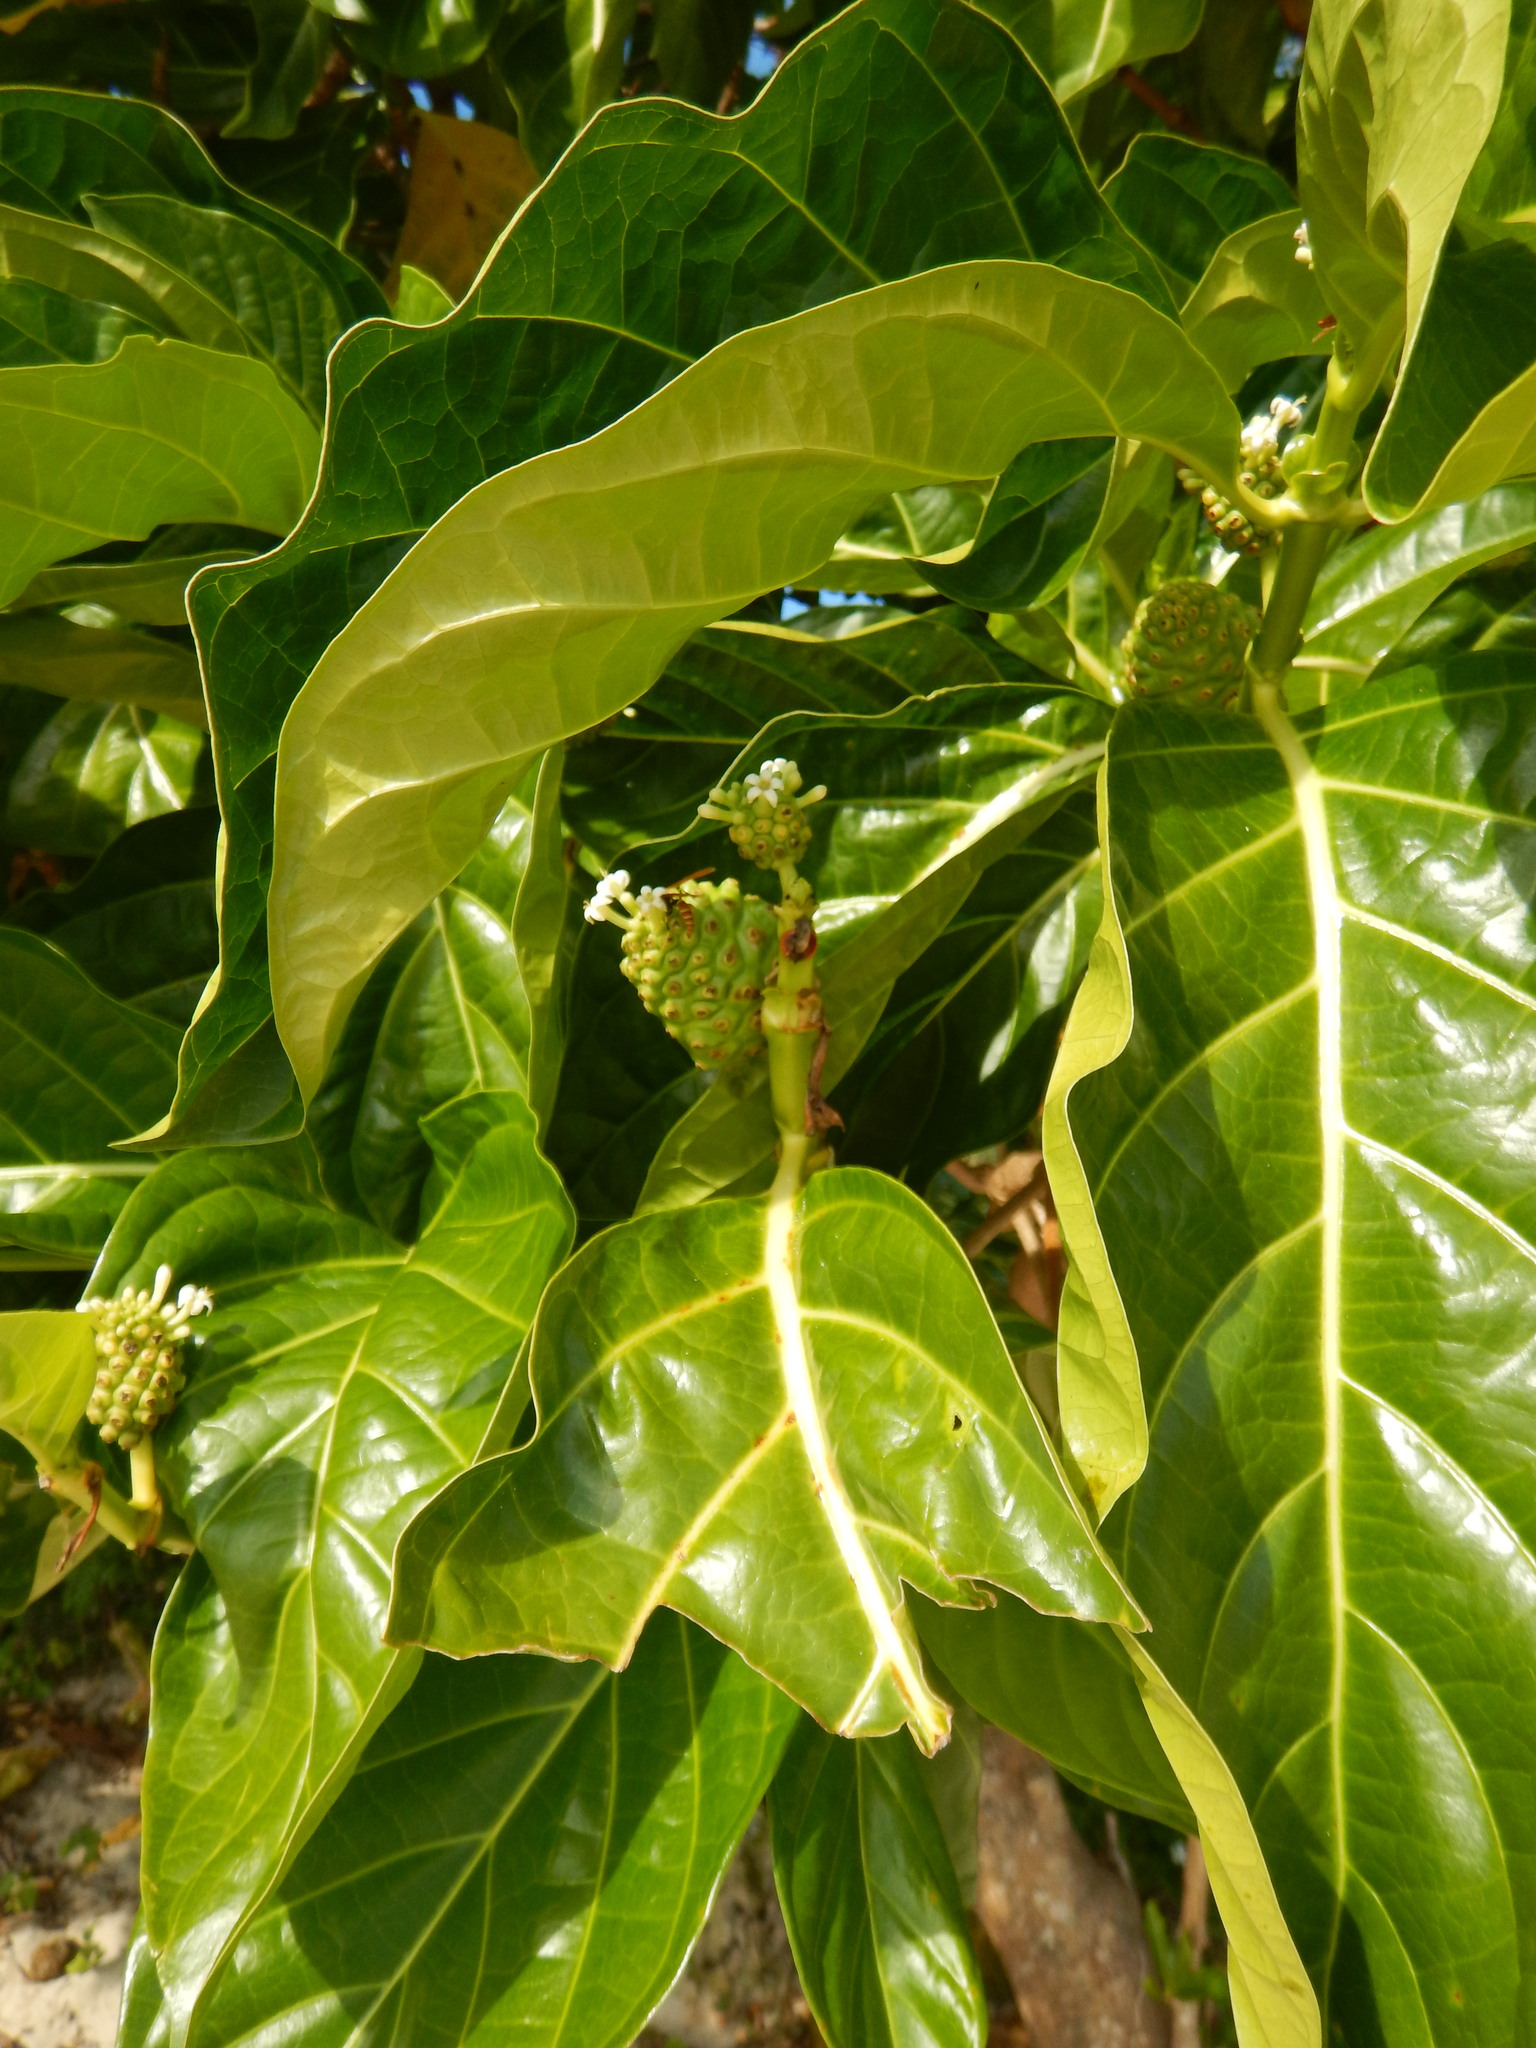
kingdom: Plantae
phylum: Tracheophyta
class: Magnoliopsida
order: Gentianales
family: Rubiaceae
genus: Morinda
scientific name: Morinda citrifolia
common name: Indian-mulberry
